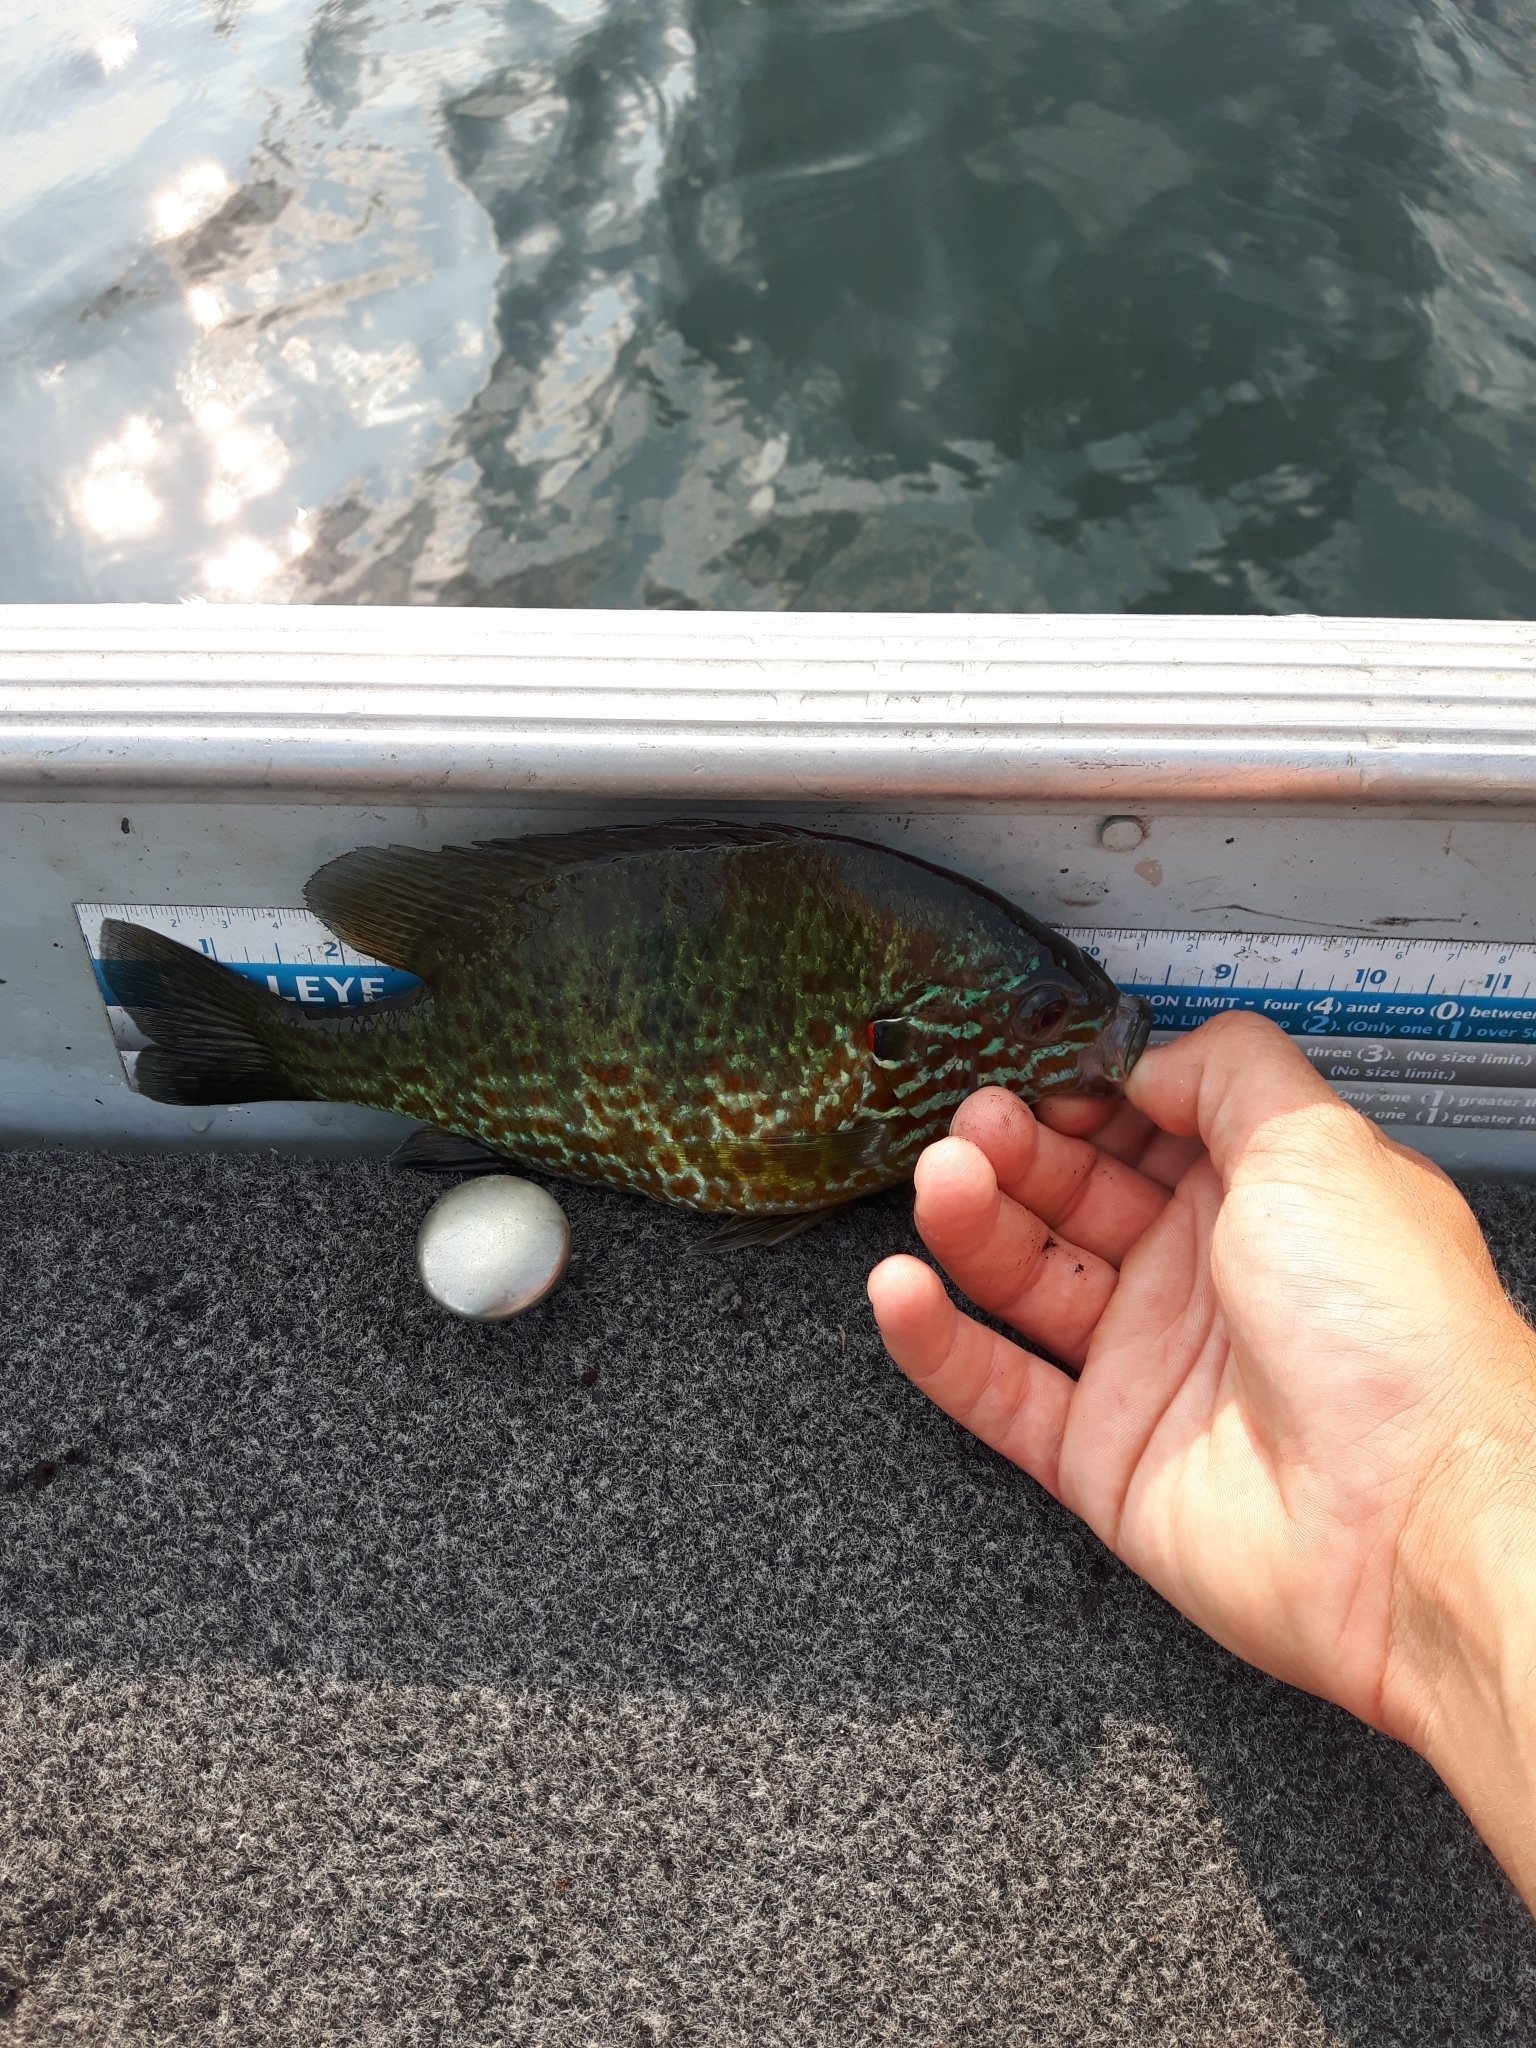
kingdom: Animalia
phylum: Chordata
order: Perciformes
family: Centrarchidae
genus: Lepomis
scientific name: Lepomis gibbosus
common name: Pumpkinseed
